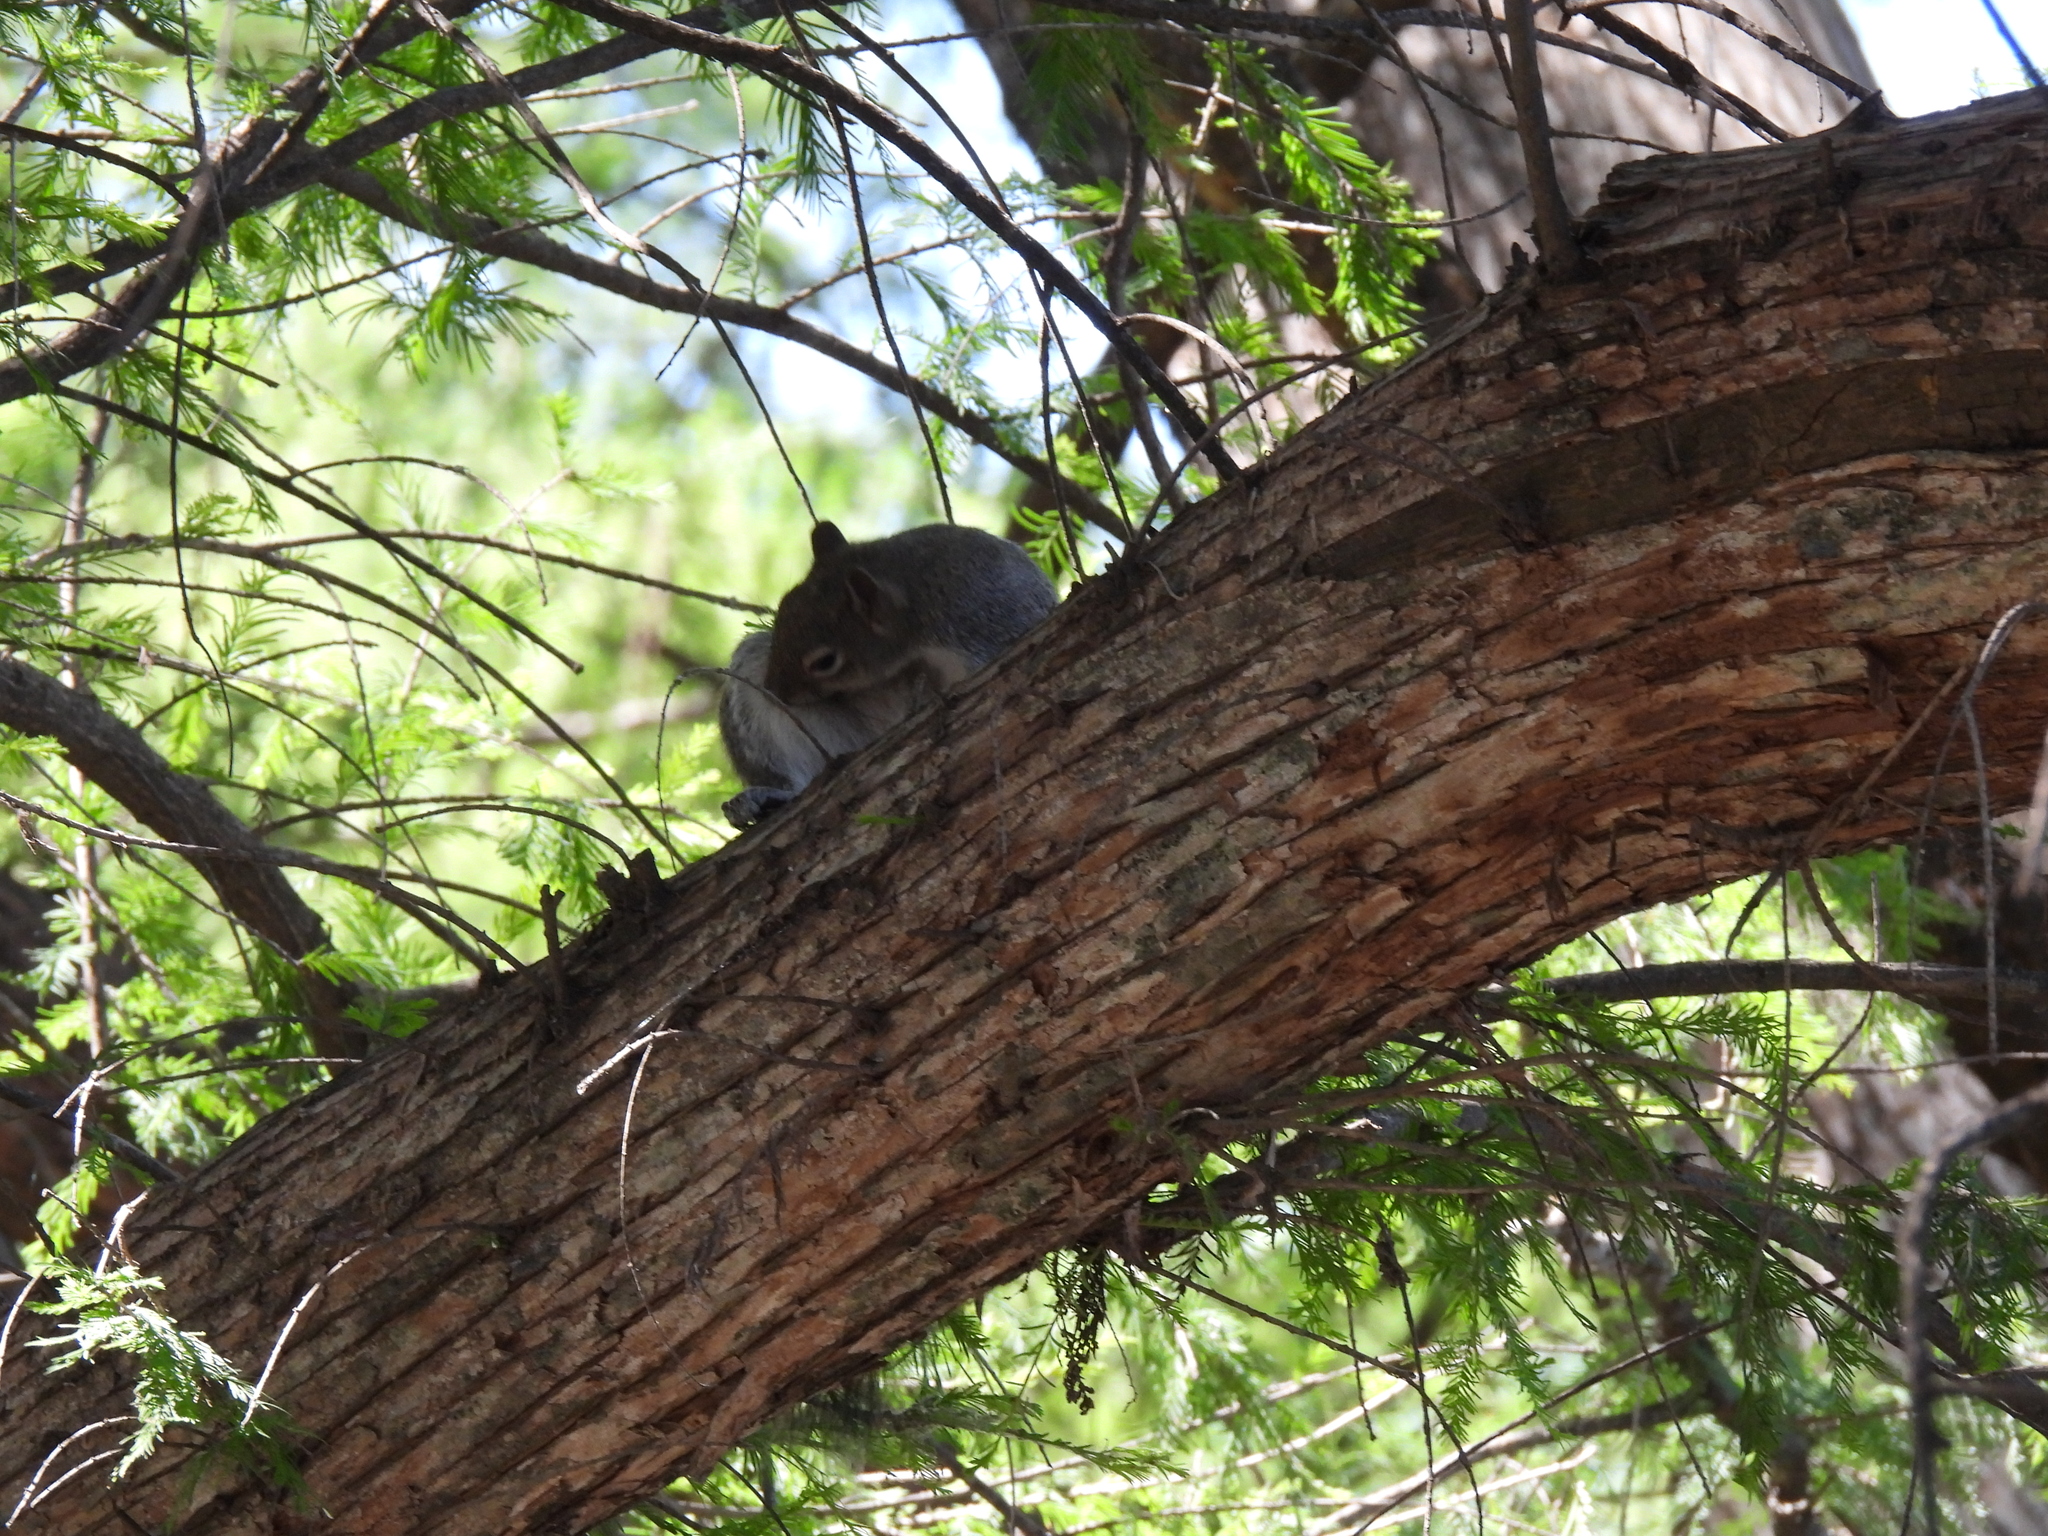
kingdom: Animalia
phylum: Chordata
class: Mammalia
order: Rodentia
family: Sciuridae
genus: Sciurus
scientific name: Sciurus alleni
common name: Allen's squirrel
